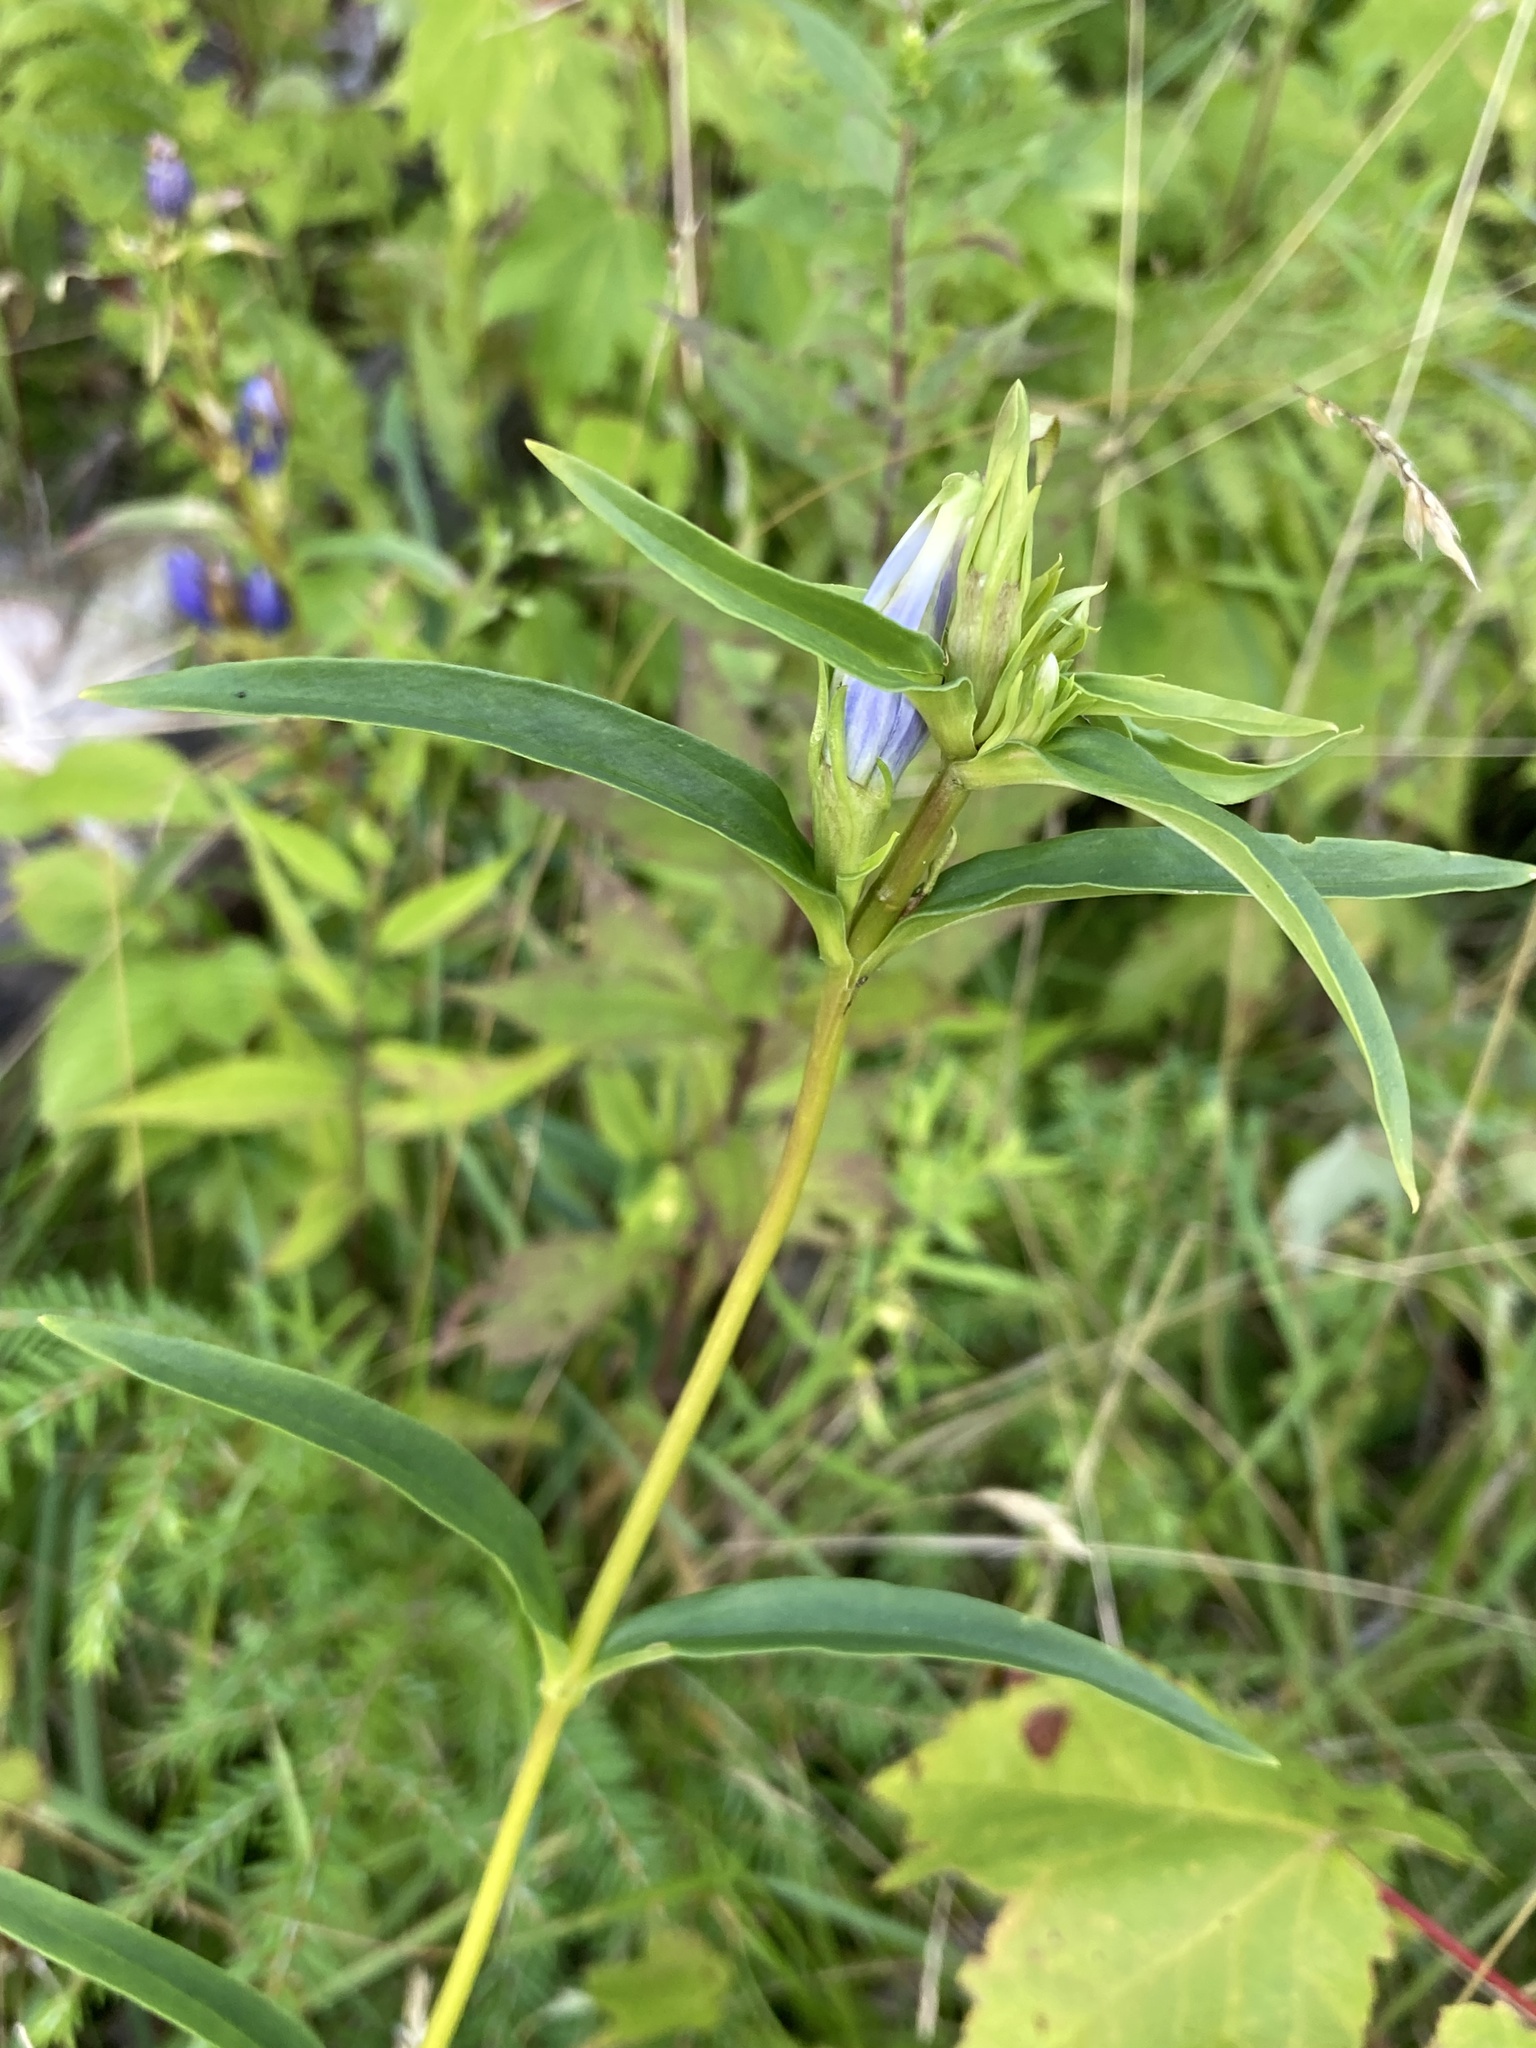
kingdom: Plantae
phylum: Tracheophyta
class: Magnoliopsida
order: Gentianales
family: Gentianaceae
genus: Gentiana
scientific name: Gentiana linearis
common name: Bastard gentian
